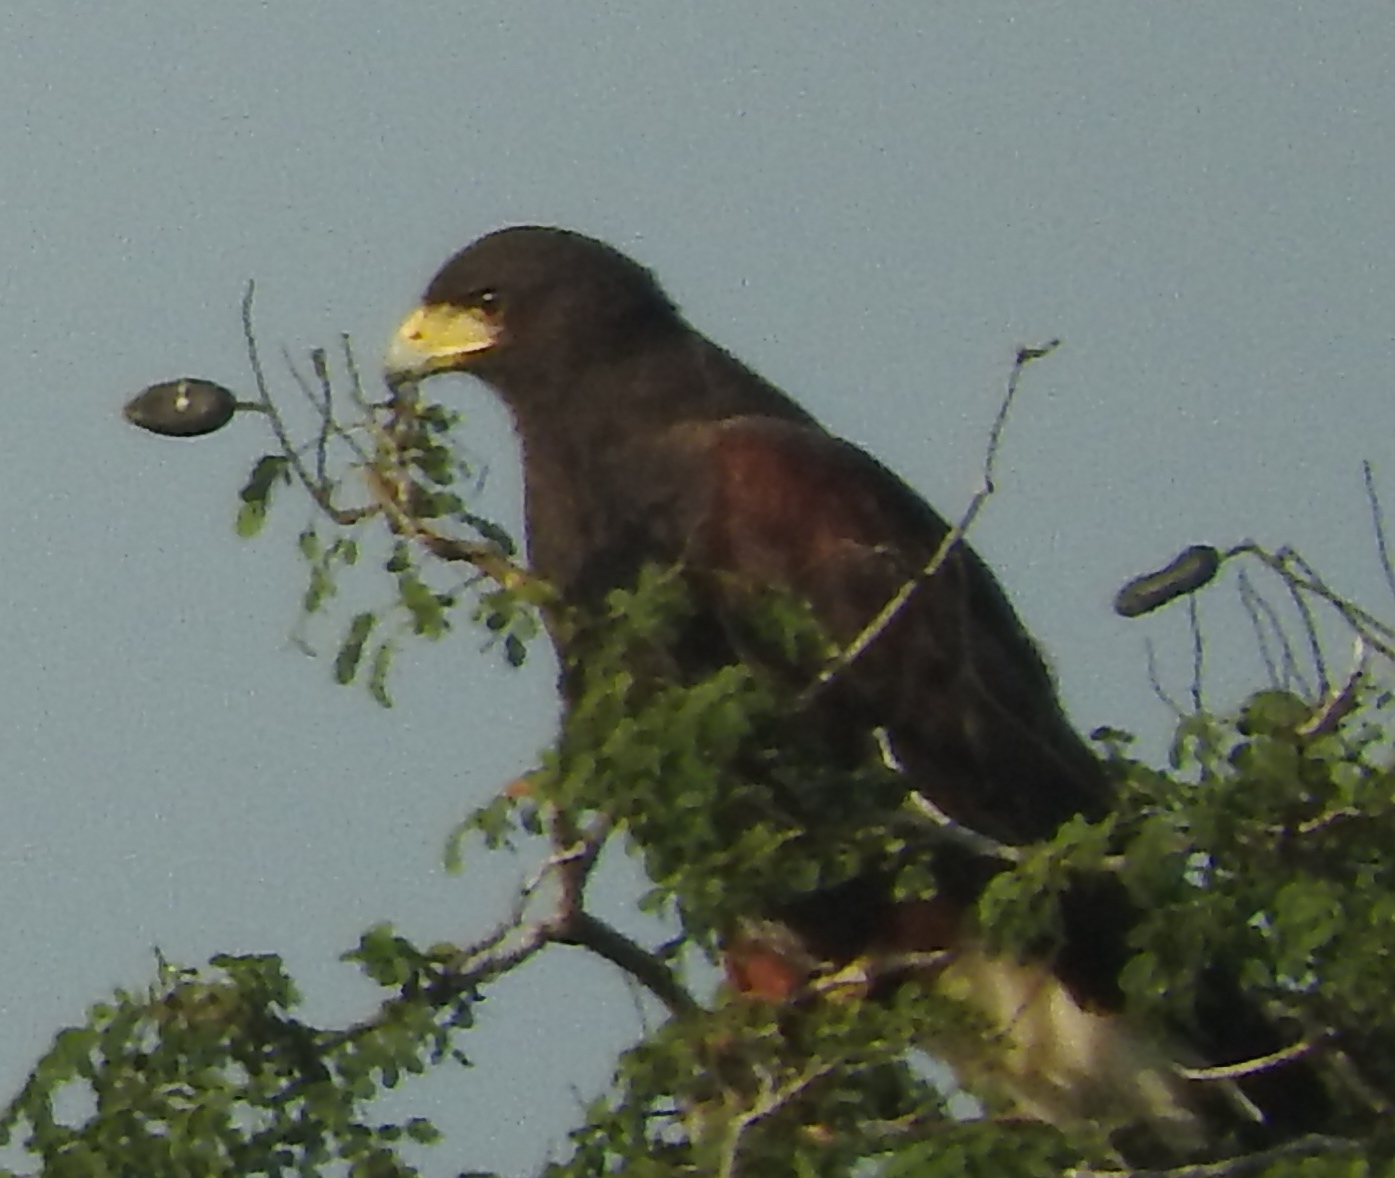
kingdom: Animalia
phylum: Chordata
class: Aves
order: Accipitriformes
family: Accipitridae
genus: Parabuteo
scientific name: Parabuteo unicinctus
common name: Harris's hawk
